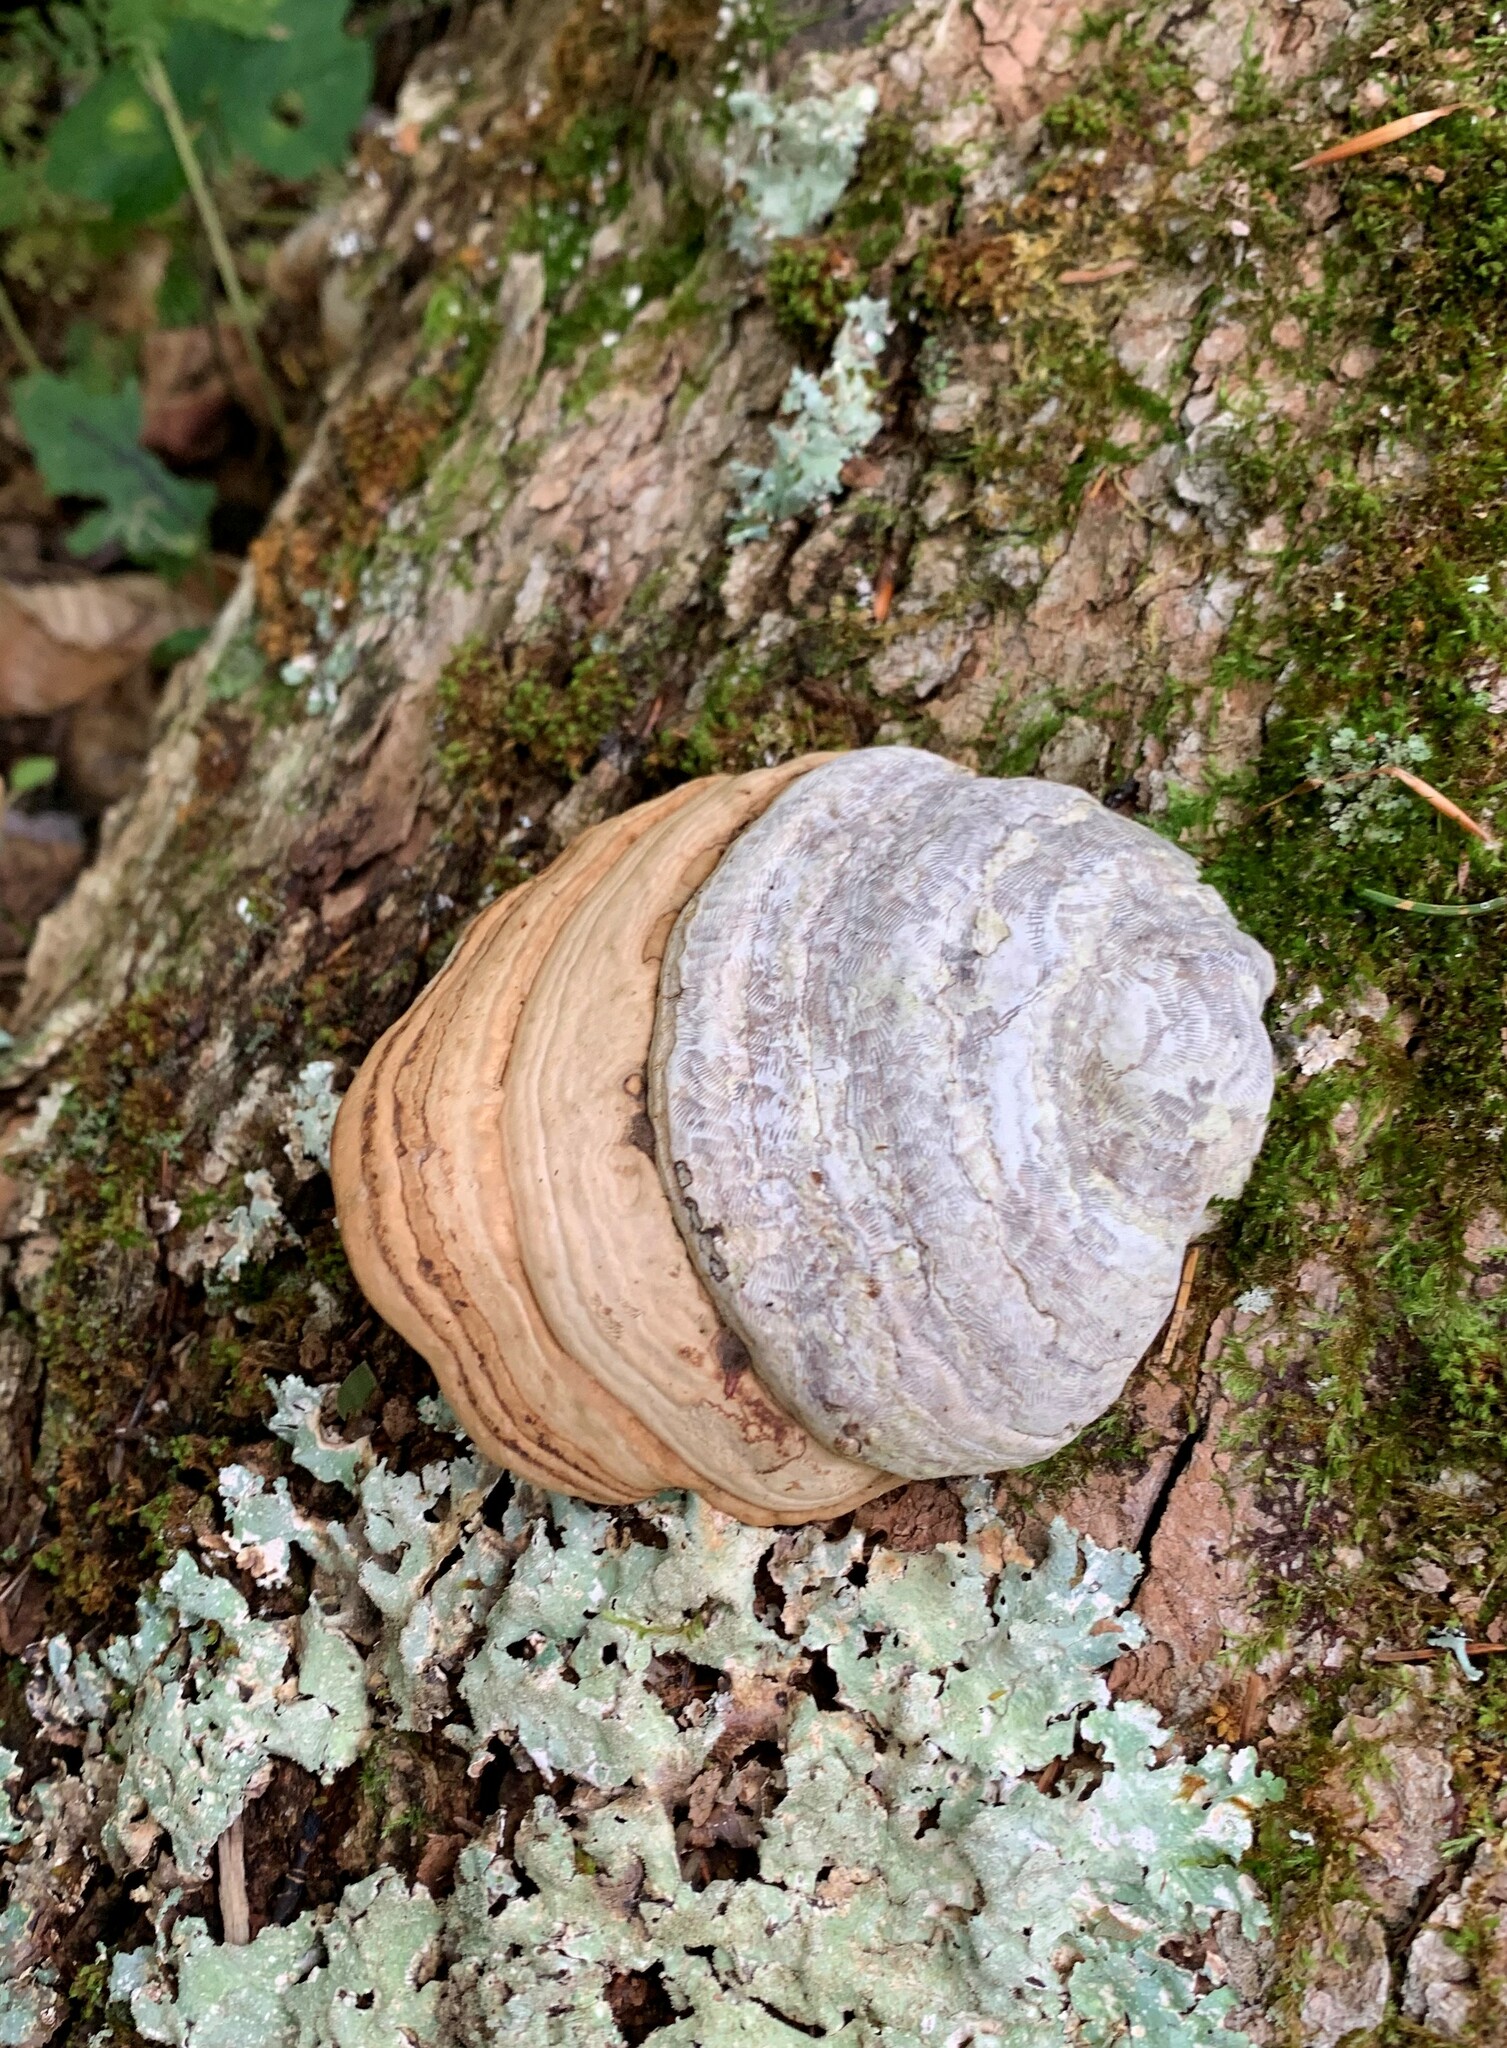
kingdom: Fungi
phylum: Basidiomycota
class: Agaricomycetes
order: Polyporales
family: Polyporaceae
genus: Fomes
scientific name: Fomes fomentarius
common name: Hoof fungus
